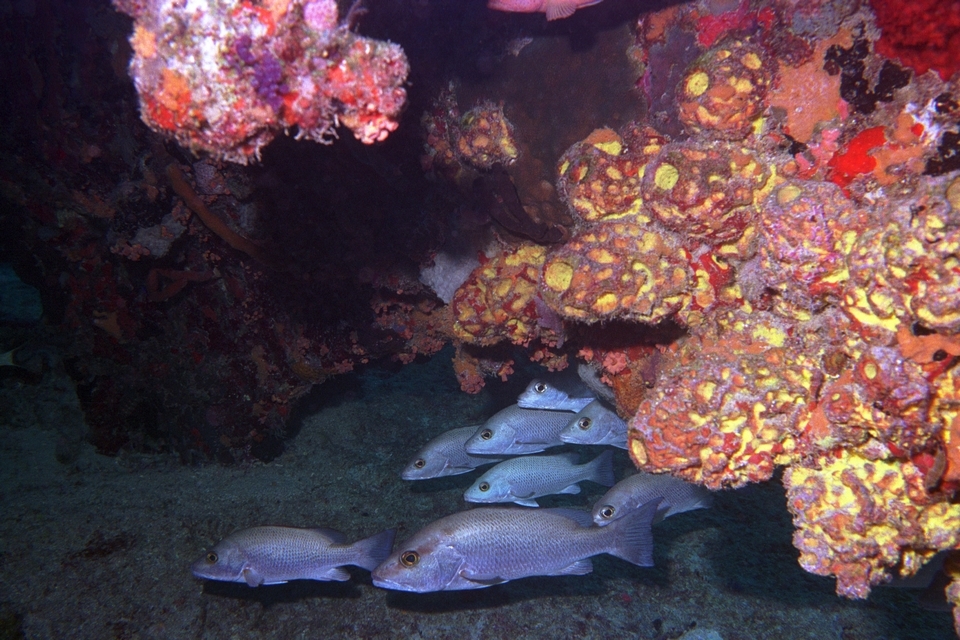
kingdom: Animalia
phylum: Chordata
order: Perciformes
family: Lutjanidae
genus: Lutjanus
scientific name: Lutjanus griseus
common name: Gray snapper
